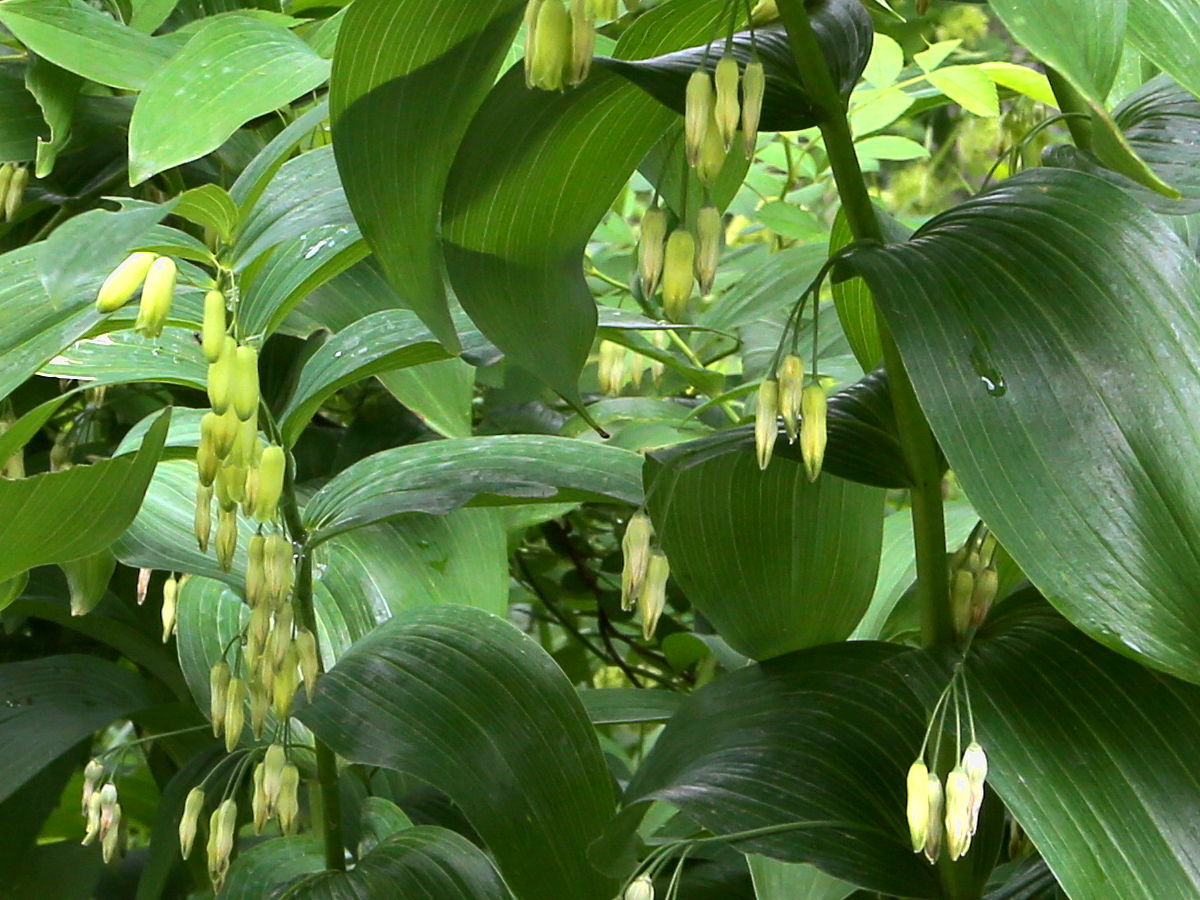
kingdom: Plantae
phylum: Tracheophyta
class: Liliopsida
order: Asparagales
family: Asparagaceae
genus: Polygonatum
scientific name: Polygonatum biflorum
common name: American solomon's-seal
